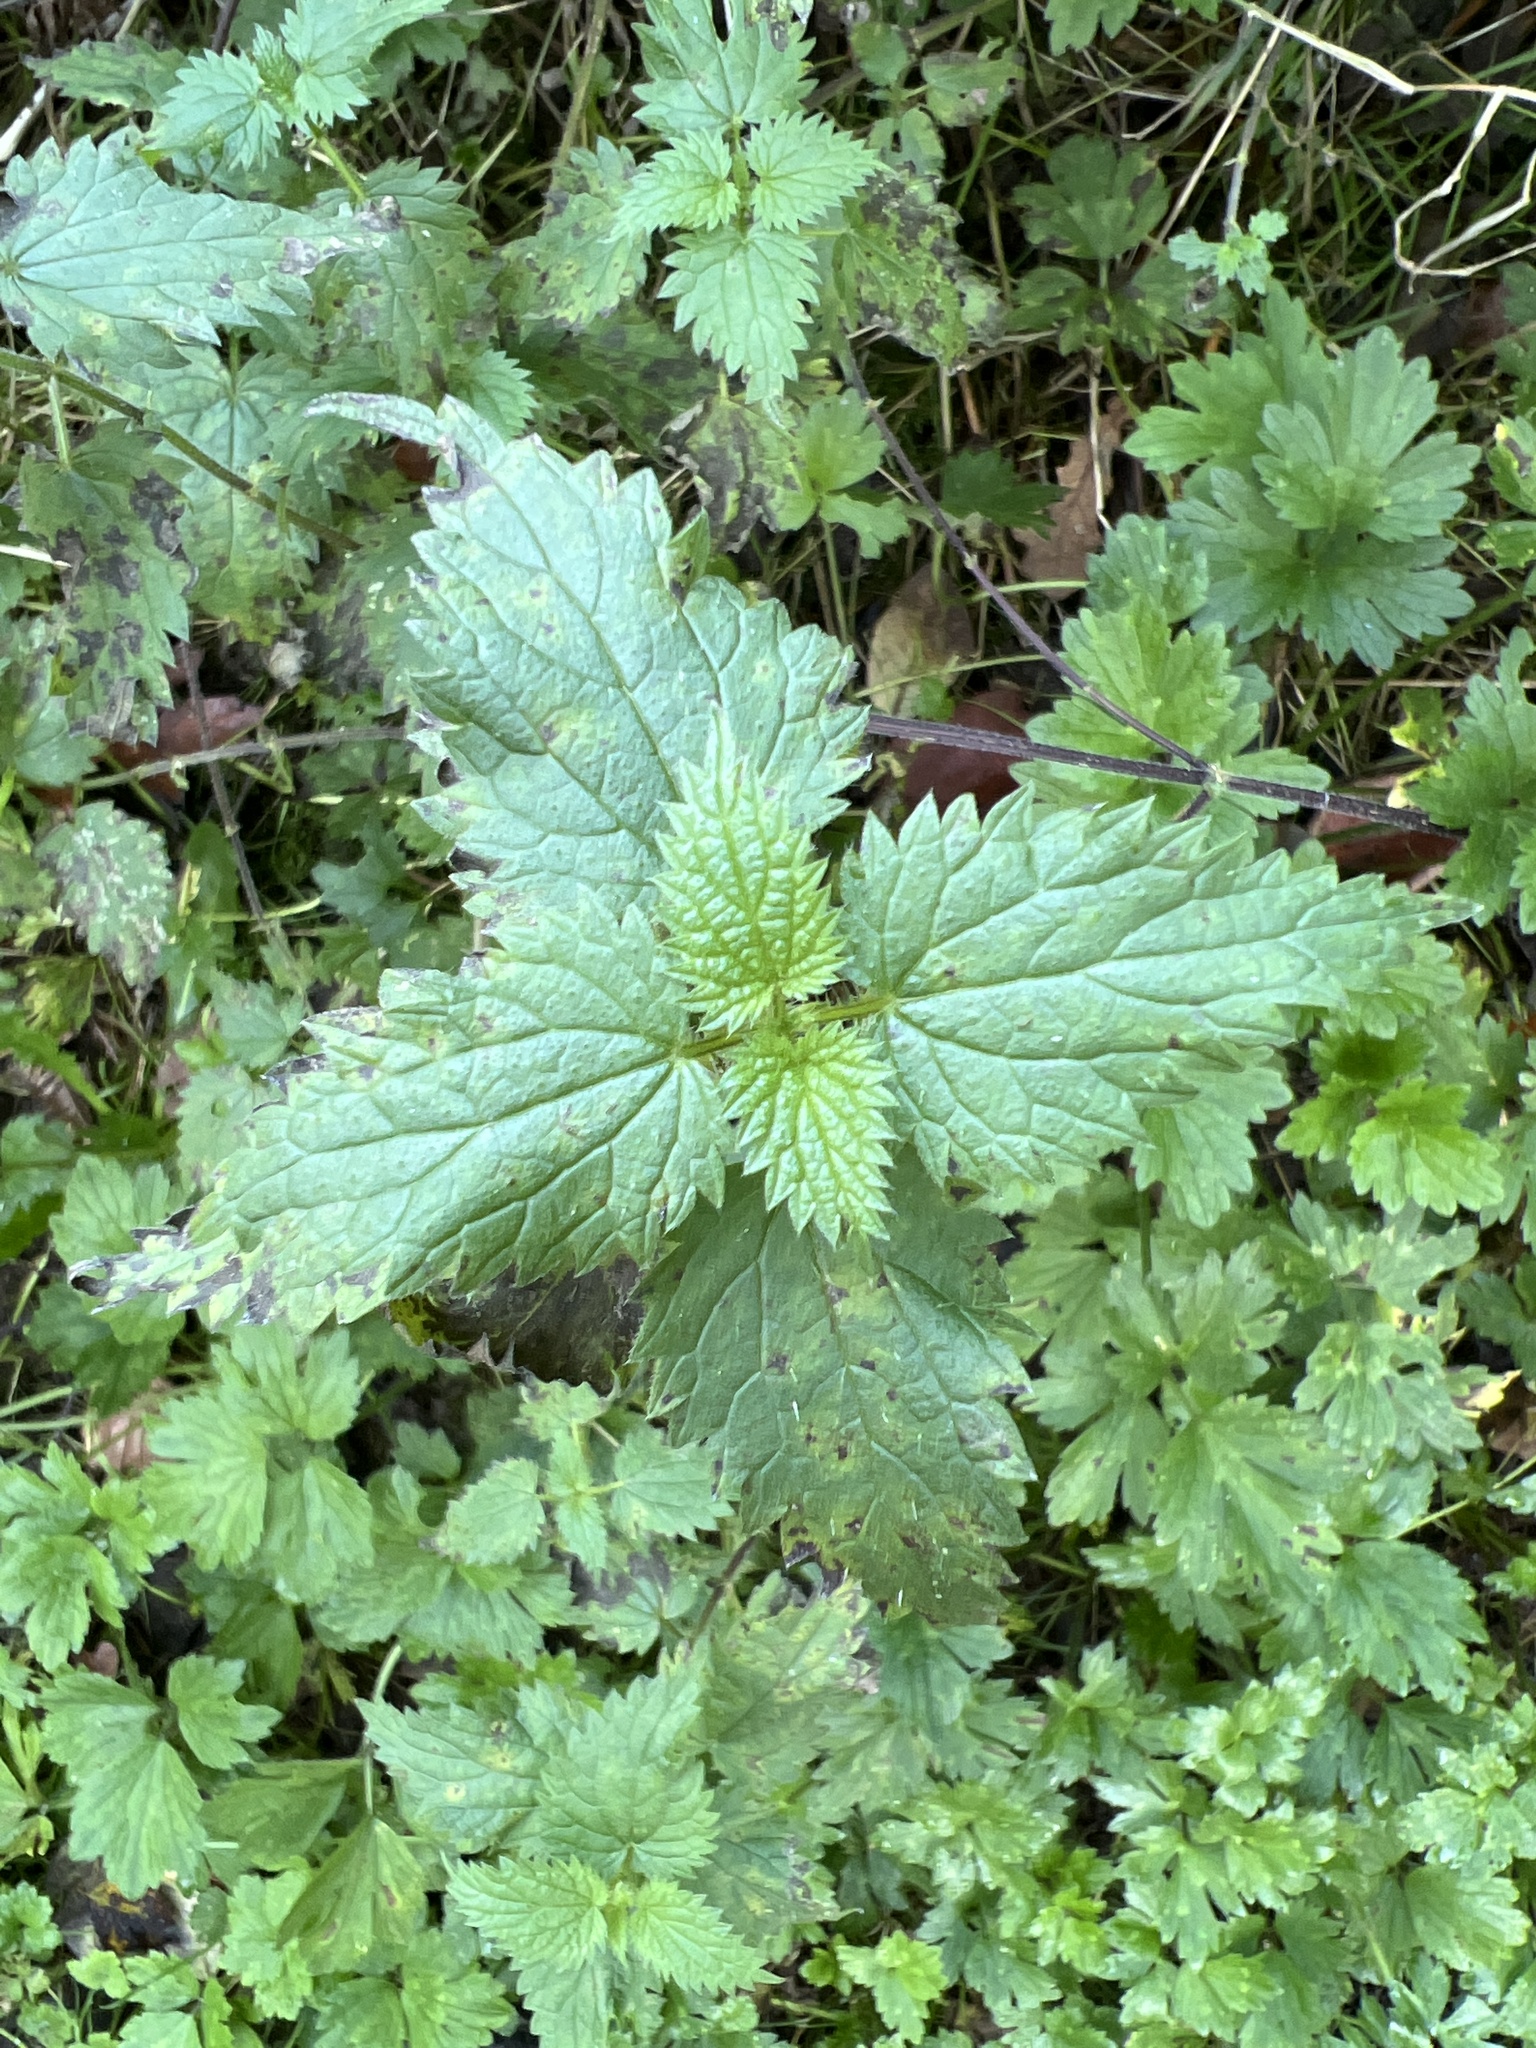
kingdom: Plantae
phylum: Tracheophyta
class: Magnoliopsida
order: Rosales
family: Urticaceae
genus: Urtica
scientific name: Urtica dioica
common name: Common nettle
